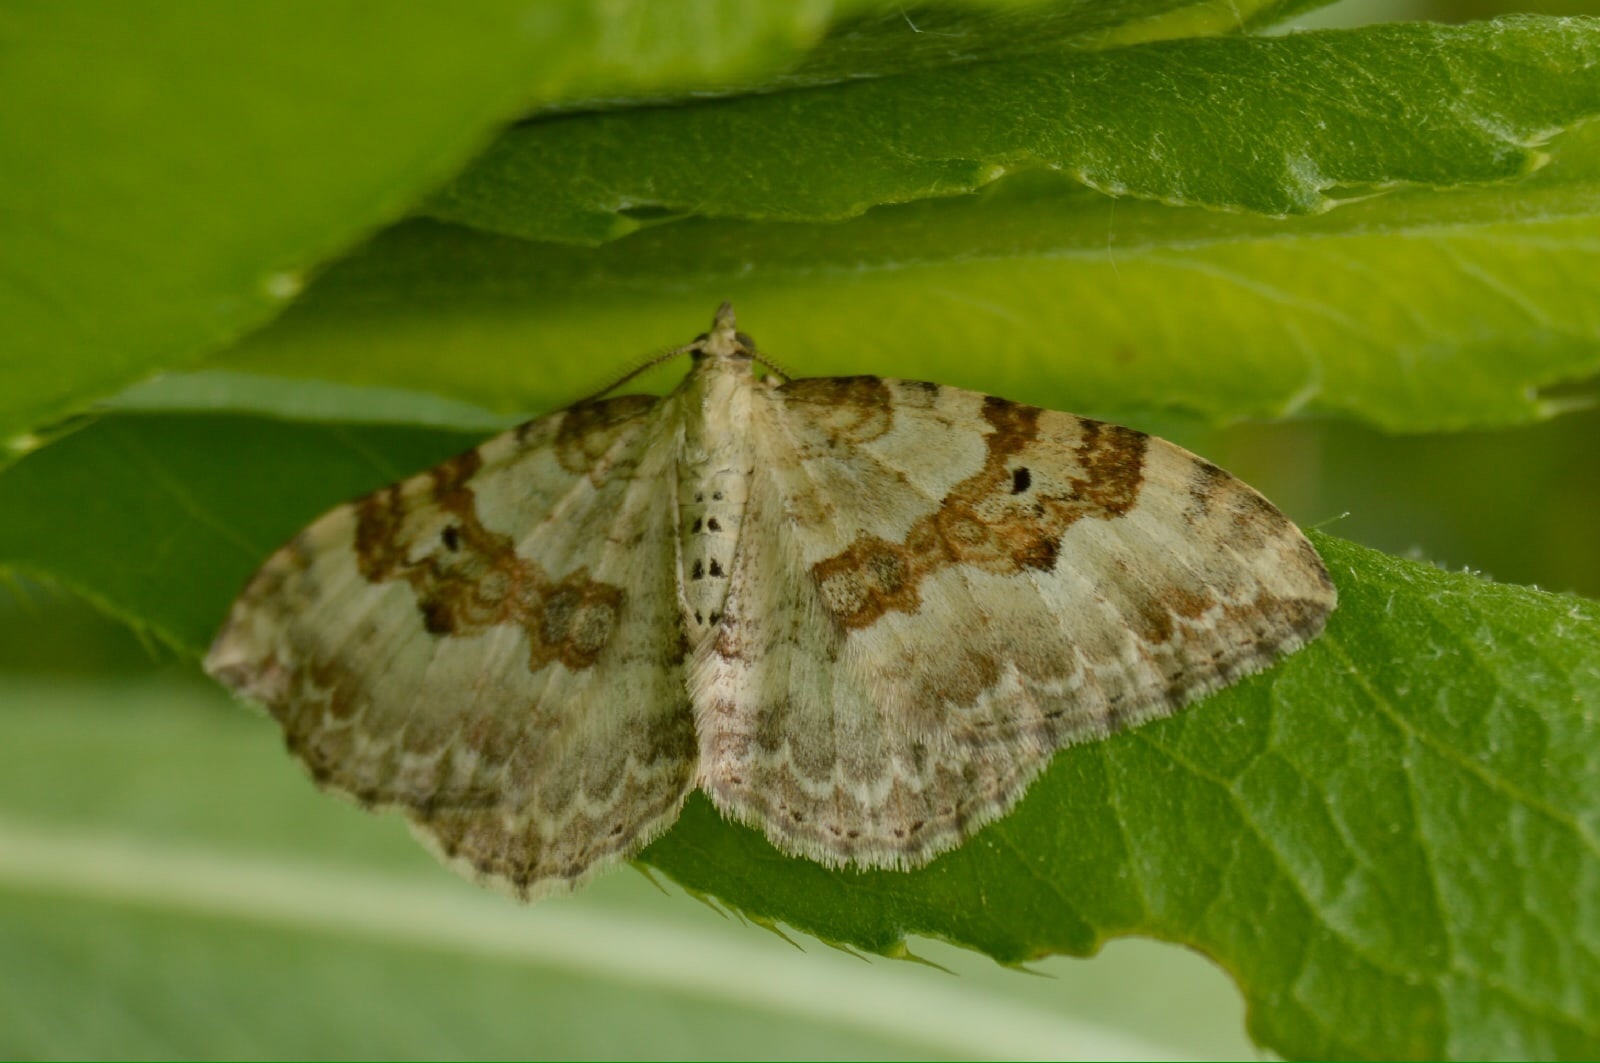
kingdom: Animalia
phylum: Arthropoda
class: Insecta
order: Lepidoptera
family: Geometridae
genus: Xanthorhoe
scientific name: Xanthorhoe montanata
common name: Silver-ground carpet
